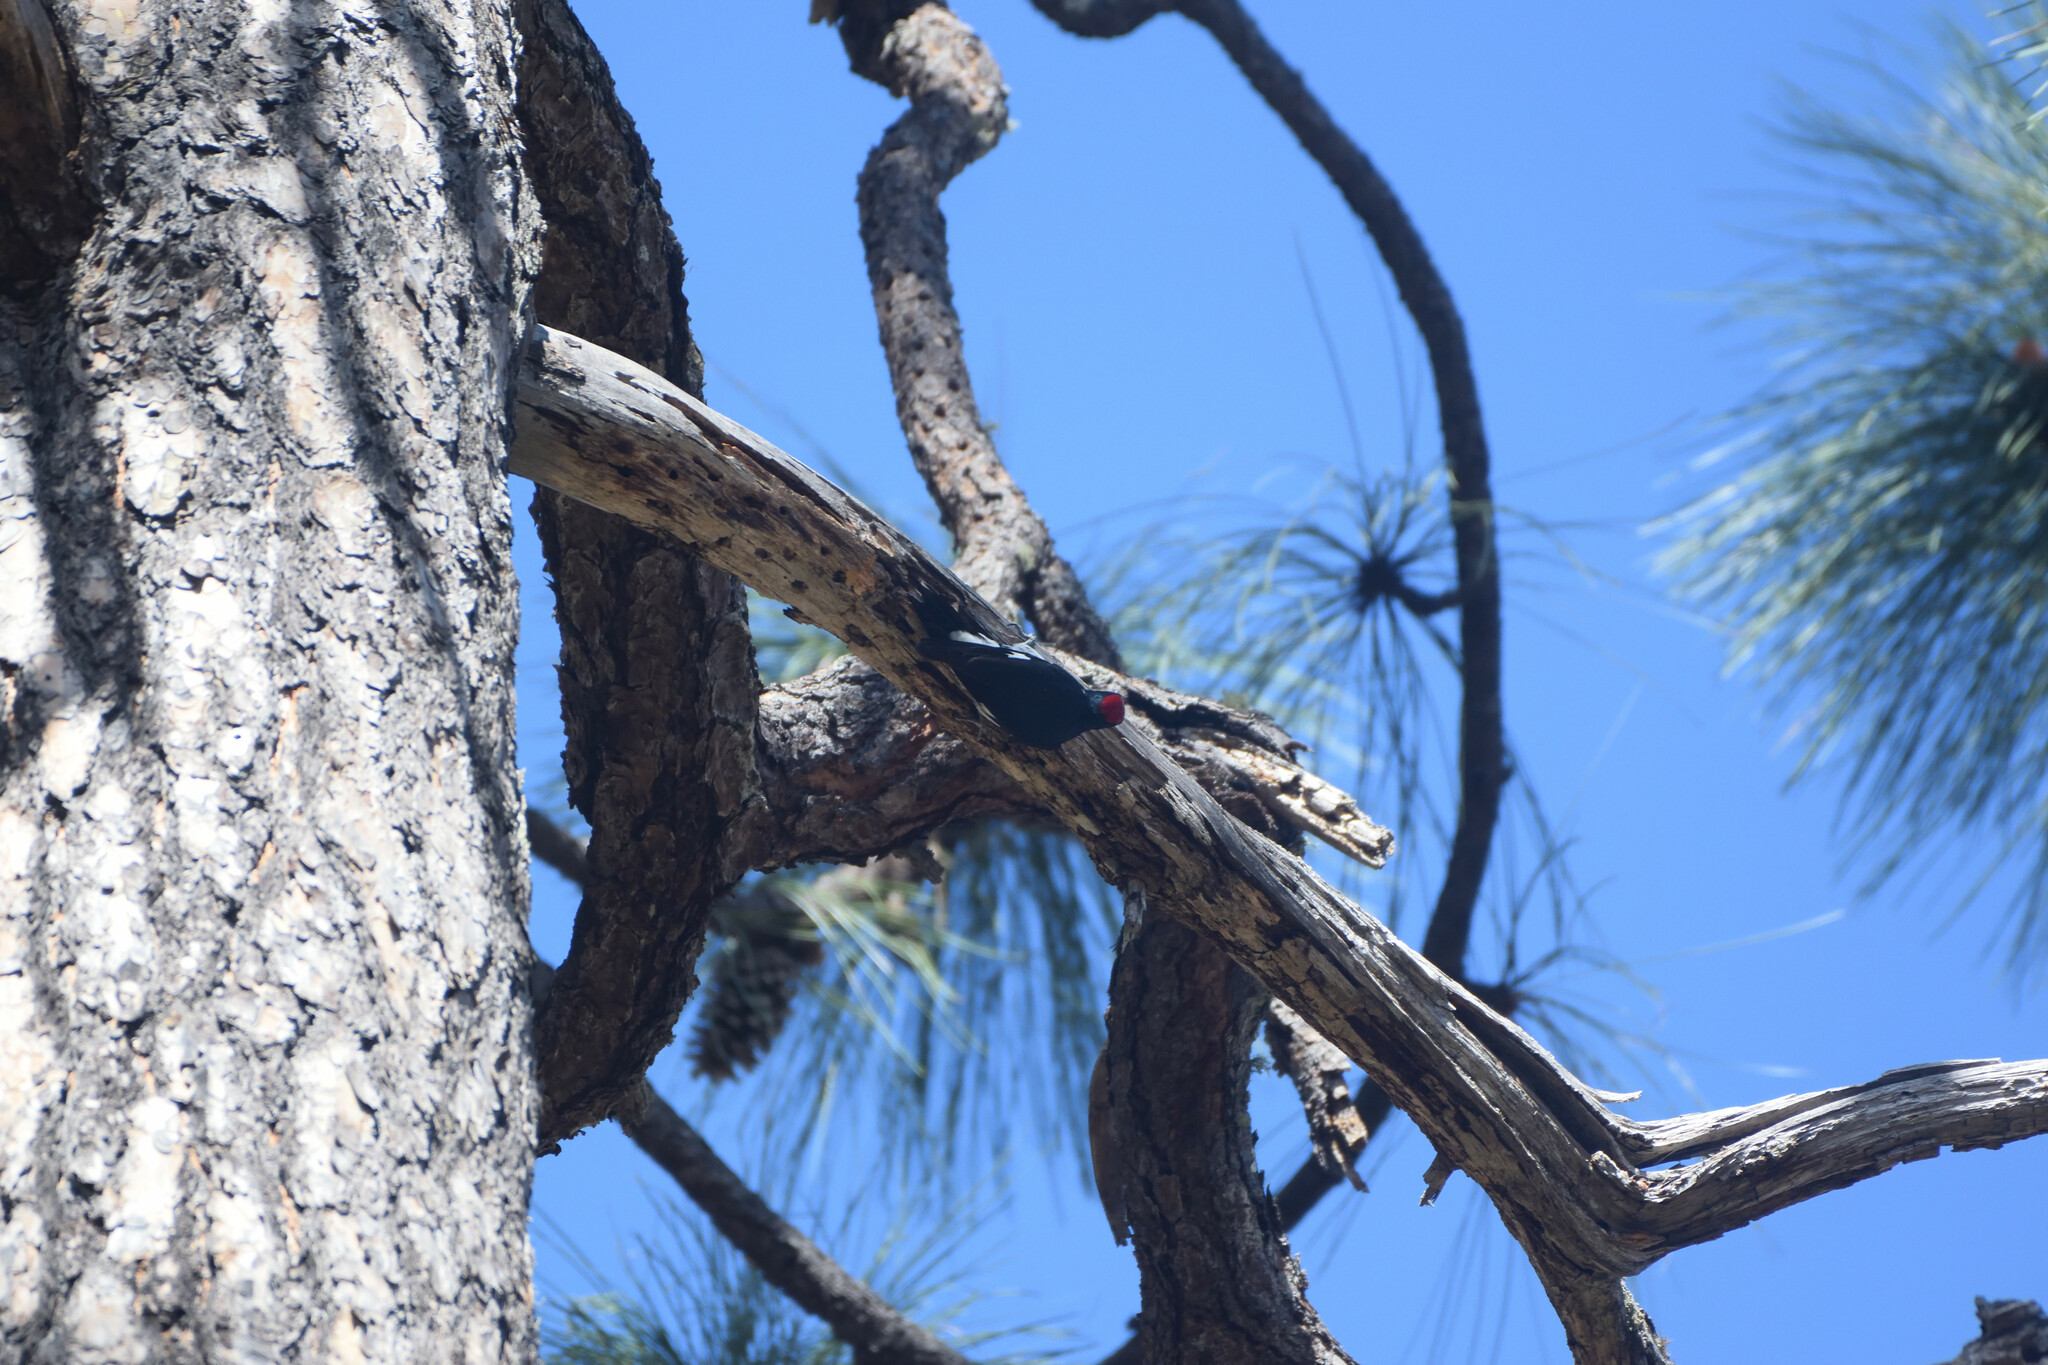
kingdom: Animalia
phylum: Chordata
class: Aves
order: Piciformes
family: Picidae
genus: Melanerpes
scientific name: Melanerpes formicivorus
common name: Acorn woodpecker
